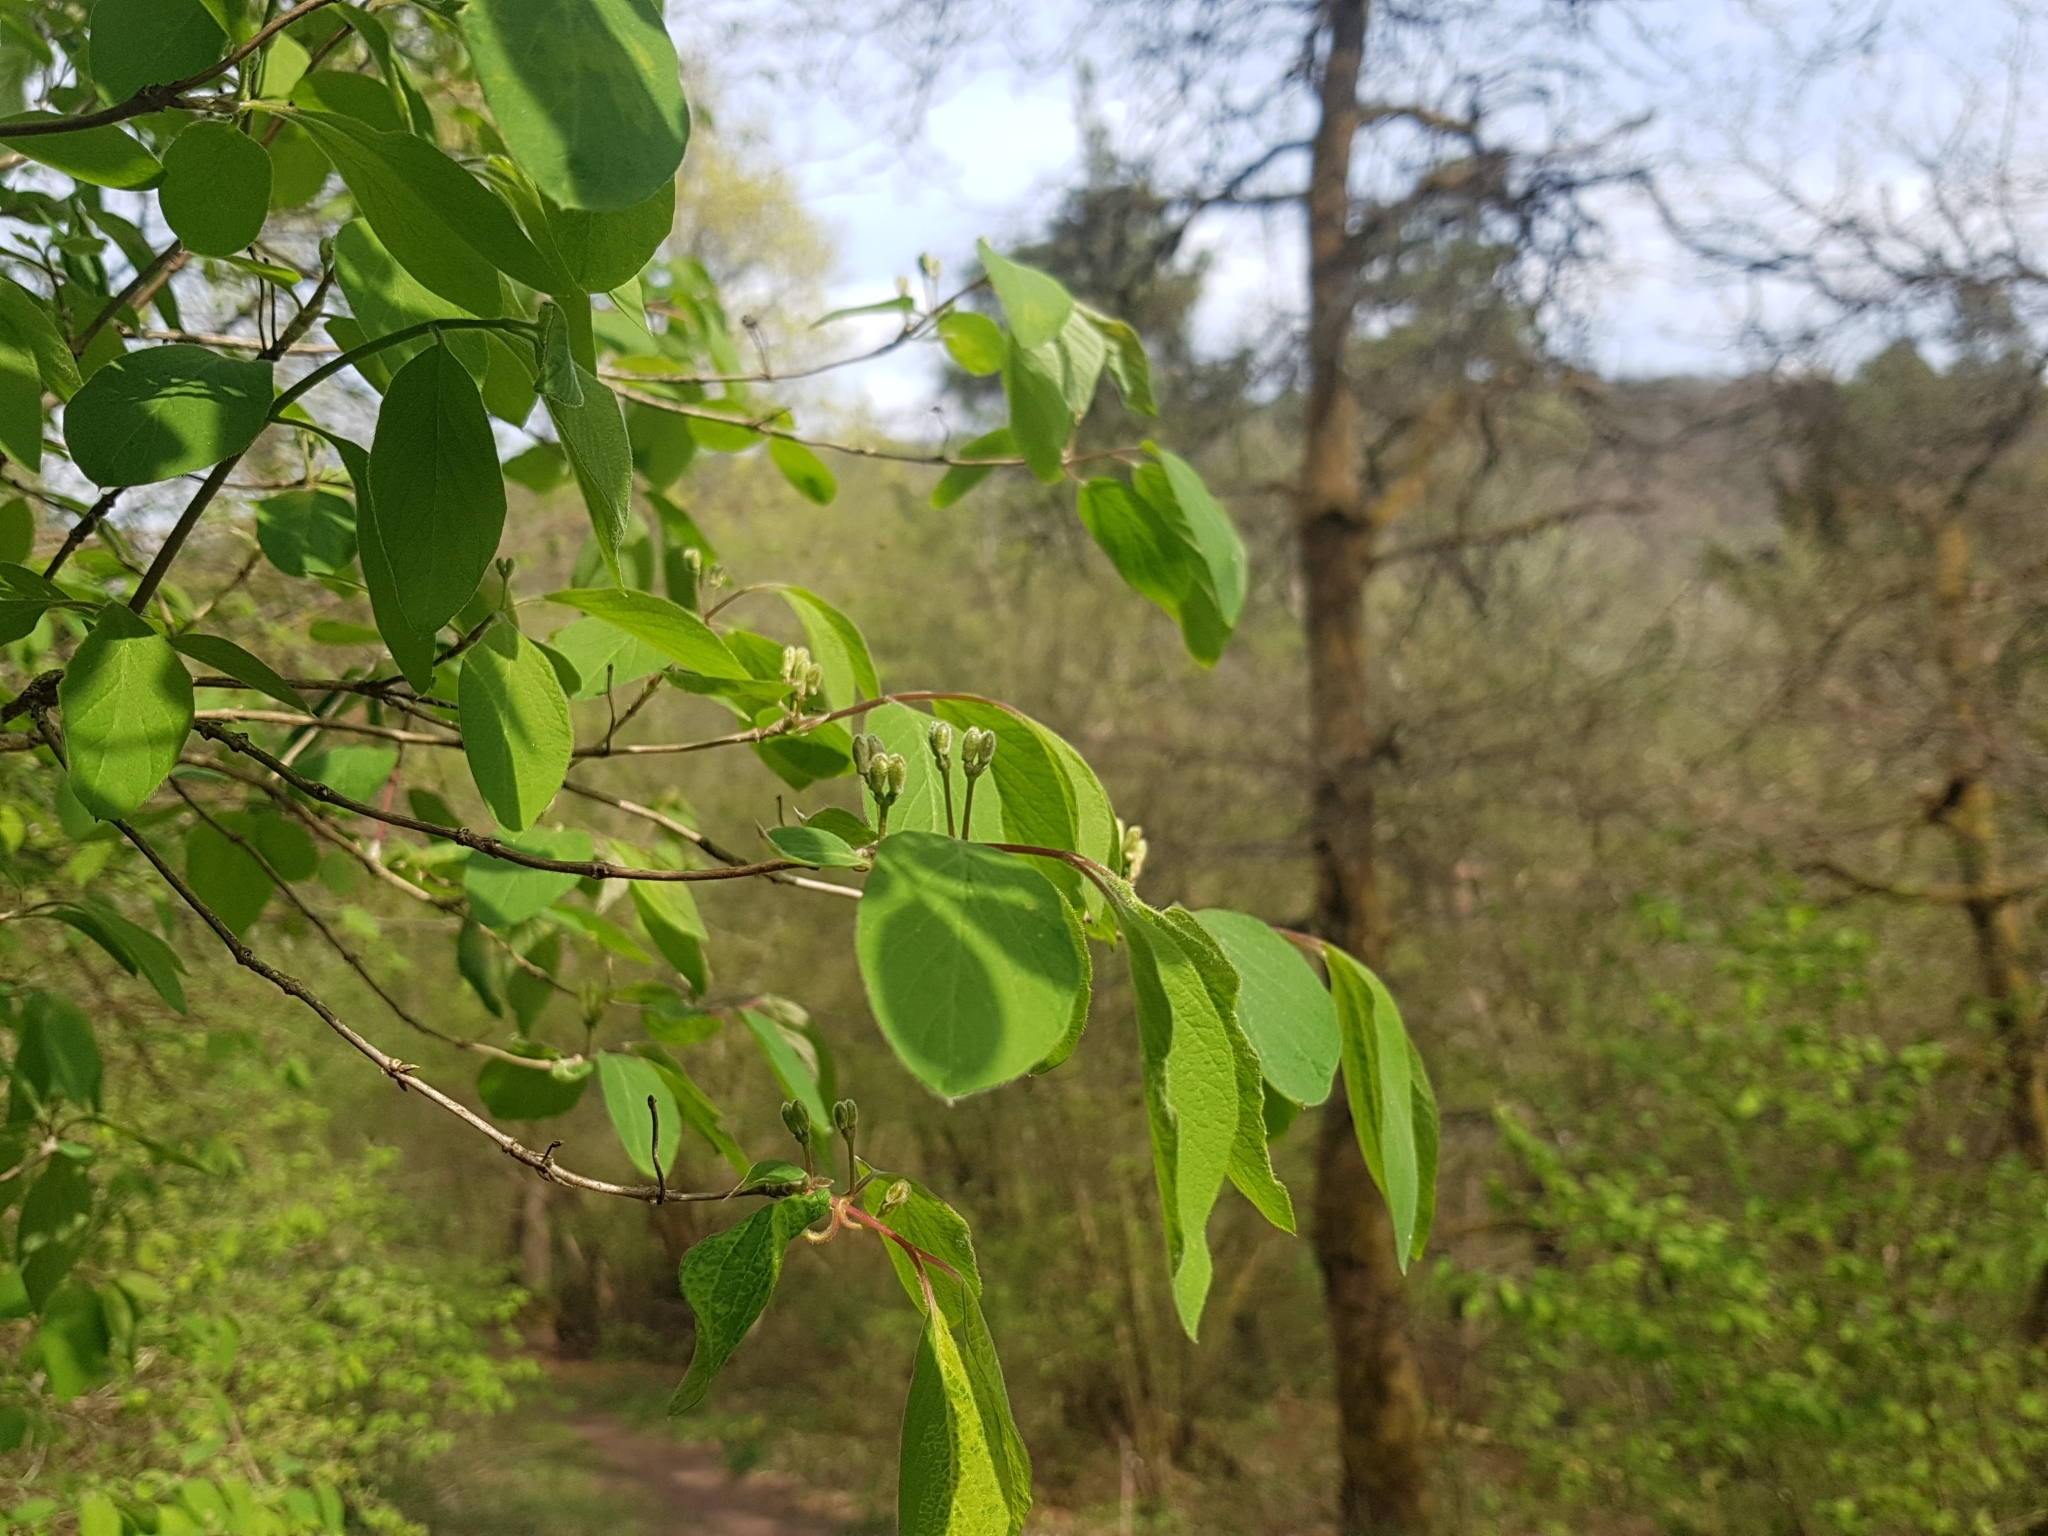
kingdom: Plantae
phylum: Tracheophyta
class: Magnoliopsida
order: Dipsacales
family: Caprifoliaceae
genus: Lonicera
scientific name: Lonicera xylosteum
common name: Fly honeysuckle
